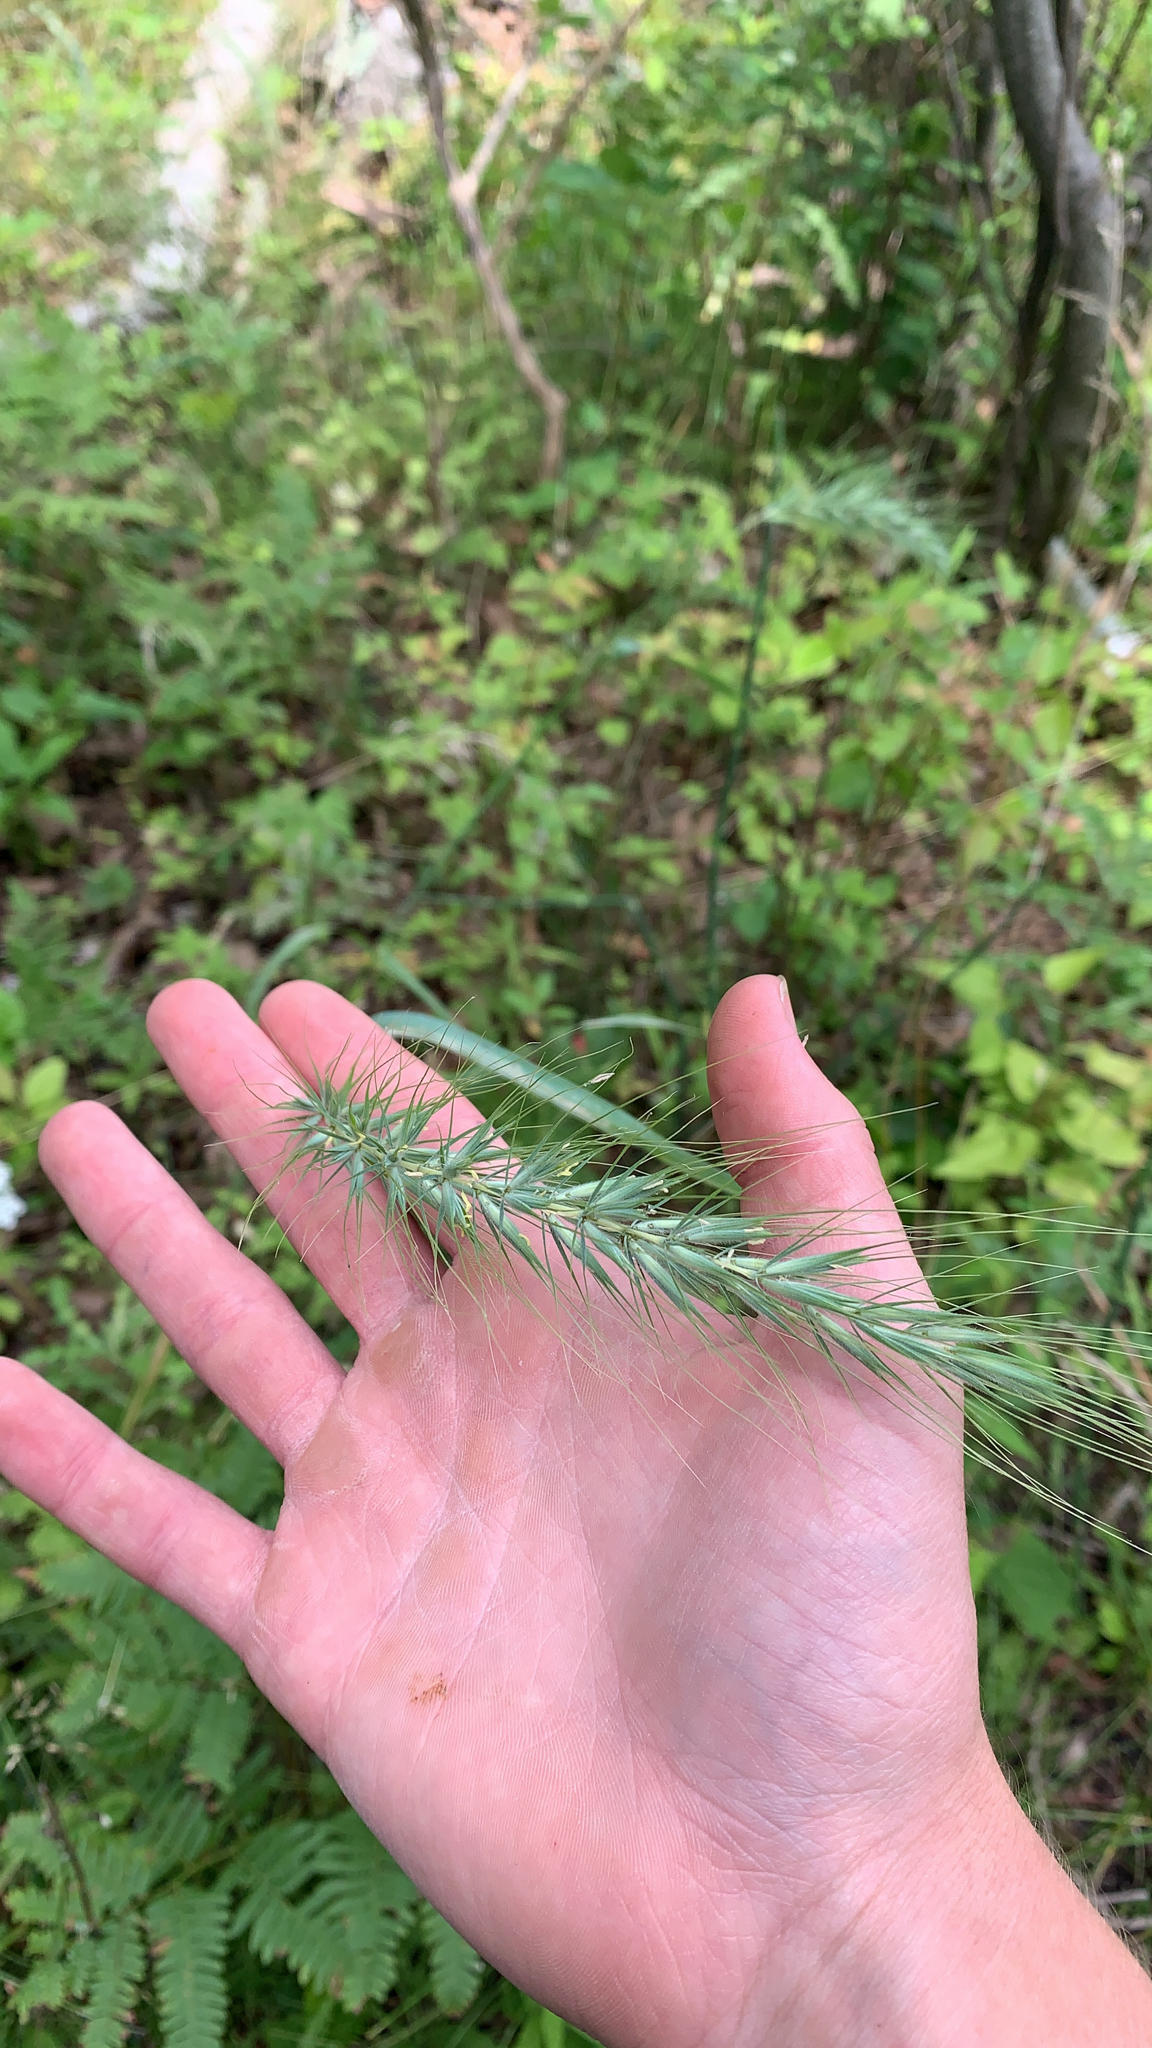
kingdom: Plantae
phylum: Tracheophyta
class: Liliopsida
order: Poales
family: Poaceae
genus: Elymus
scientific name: Elymus canadensis
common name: Canada wild rye
